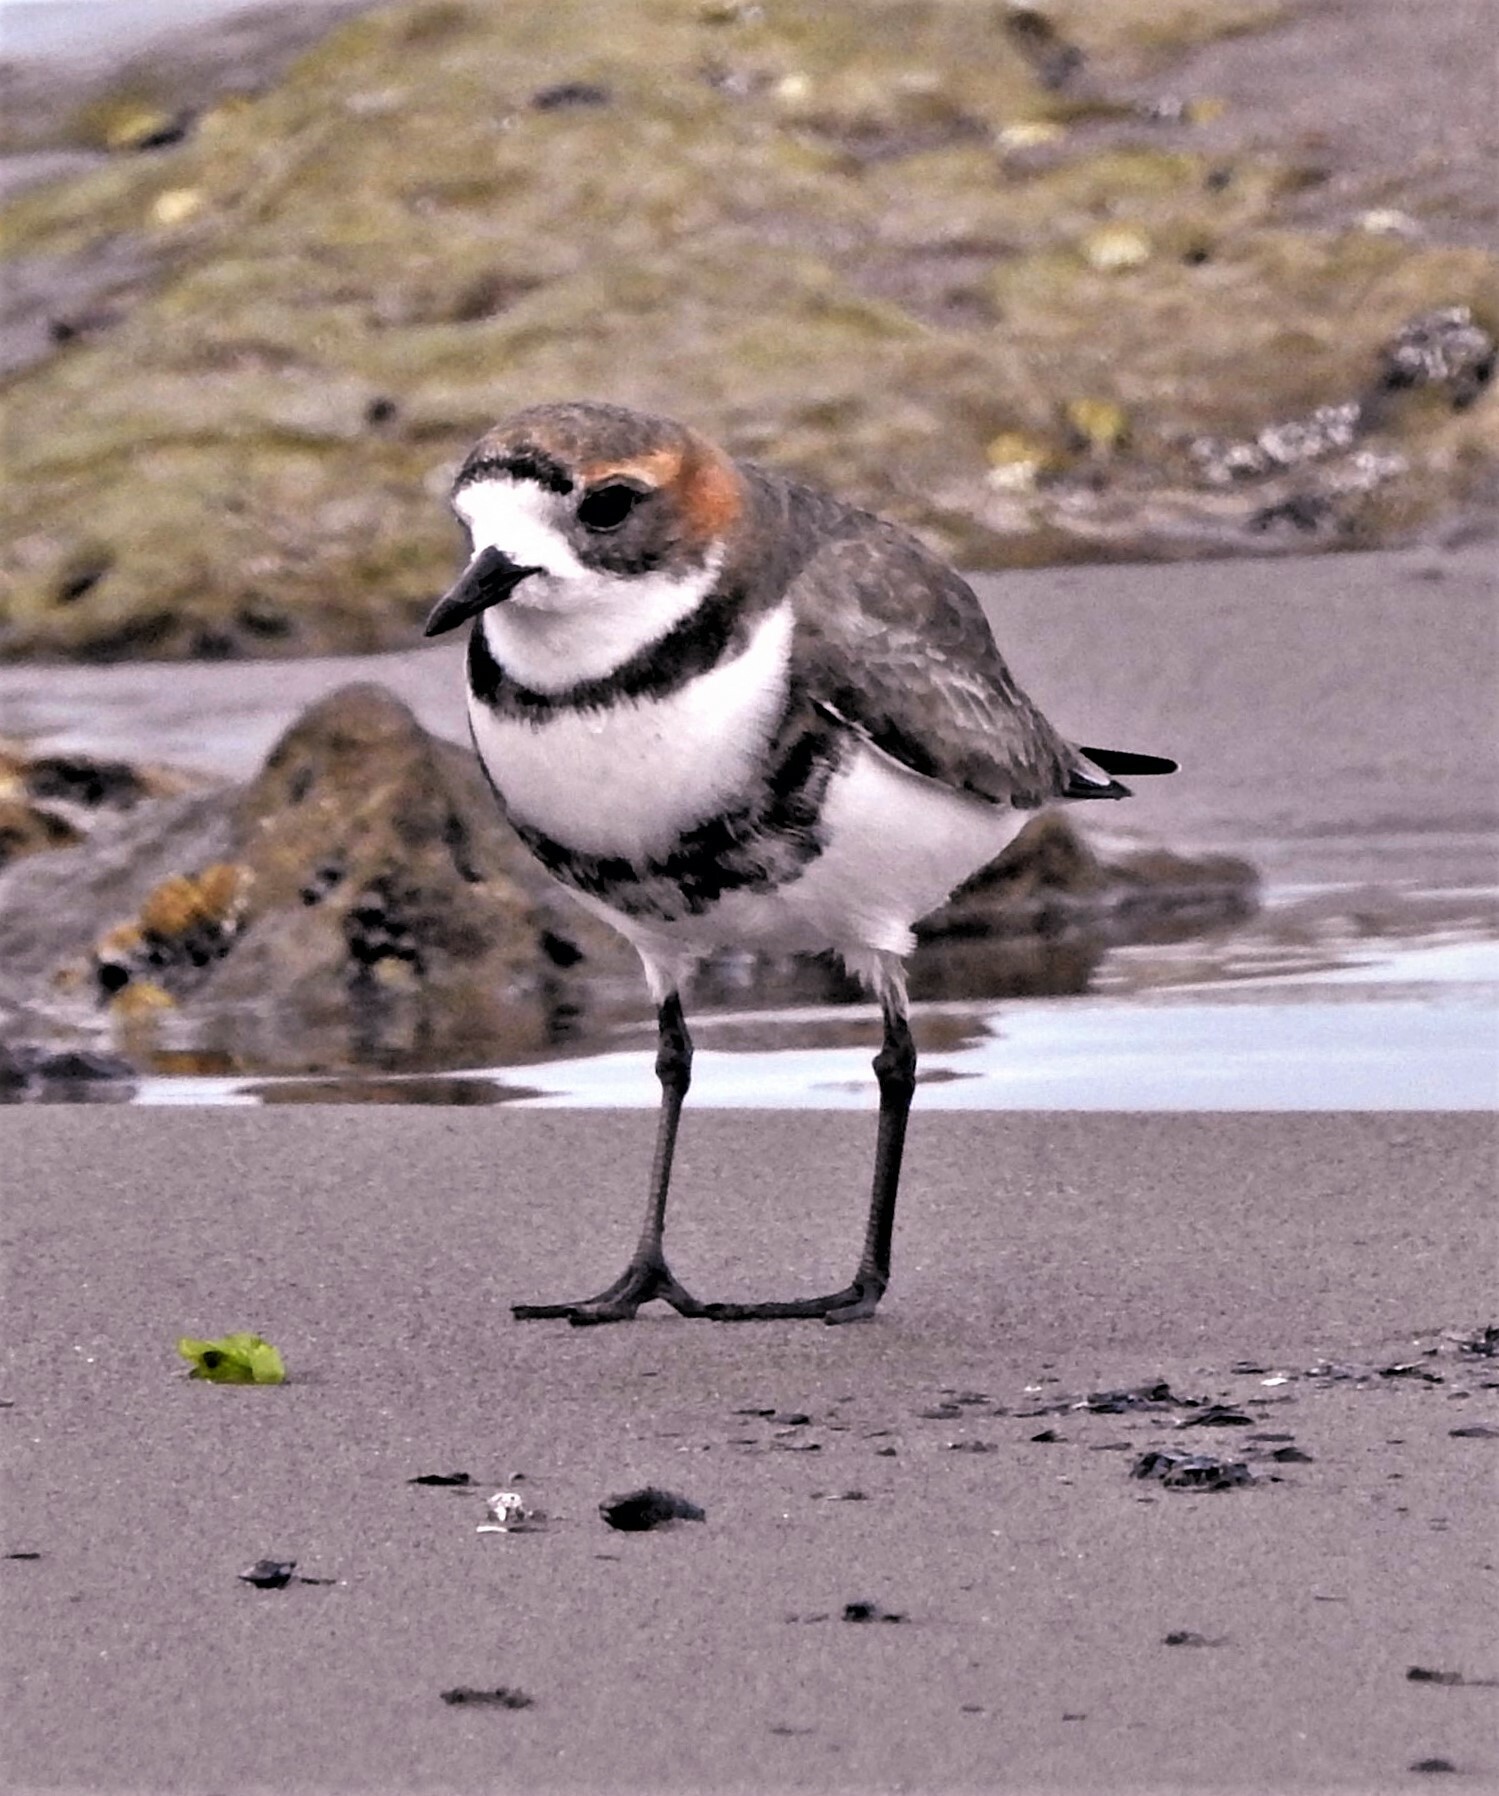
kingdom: Animalia
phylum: Chordata
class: Aves
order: Charadriiformes
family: Charadriidae
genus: Anarhynchus
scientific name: Anarhynchus
